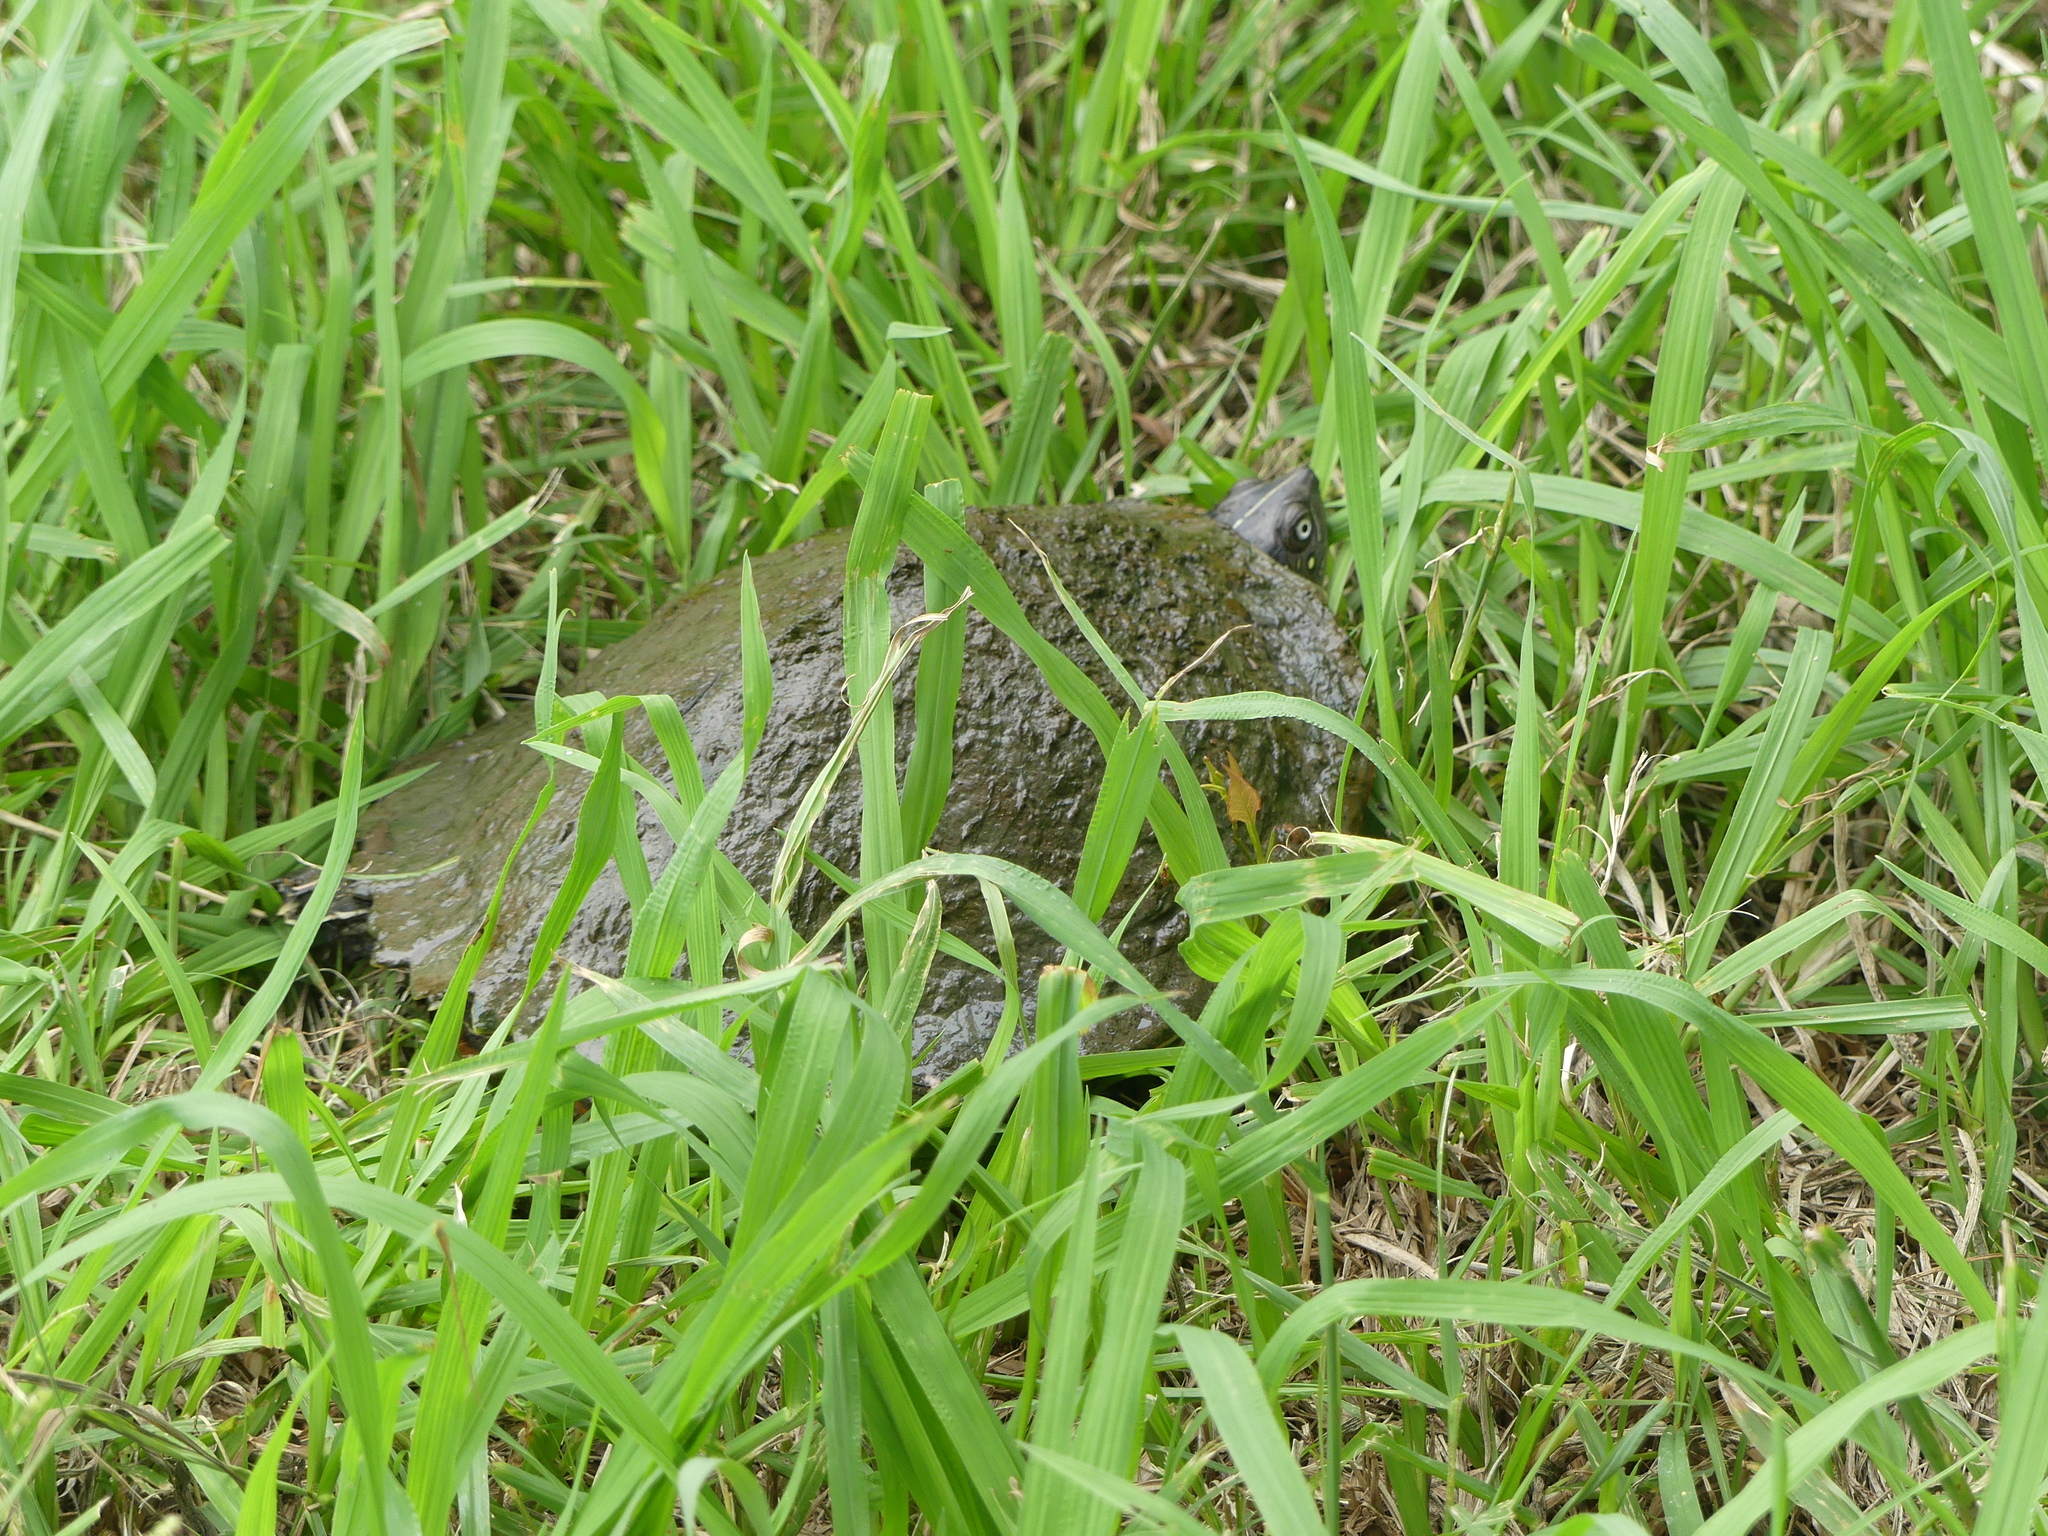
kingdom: Animalia
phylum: Chordata
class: Testudines
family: Emydidae
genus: Graptemys
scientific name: Graptemys pseudogeographica
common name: False map turtle
